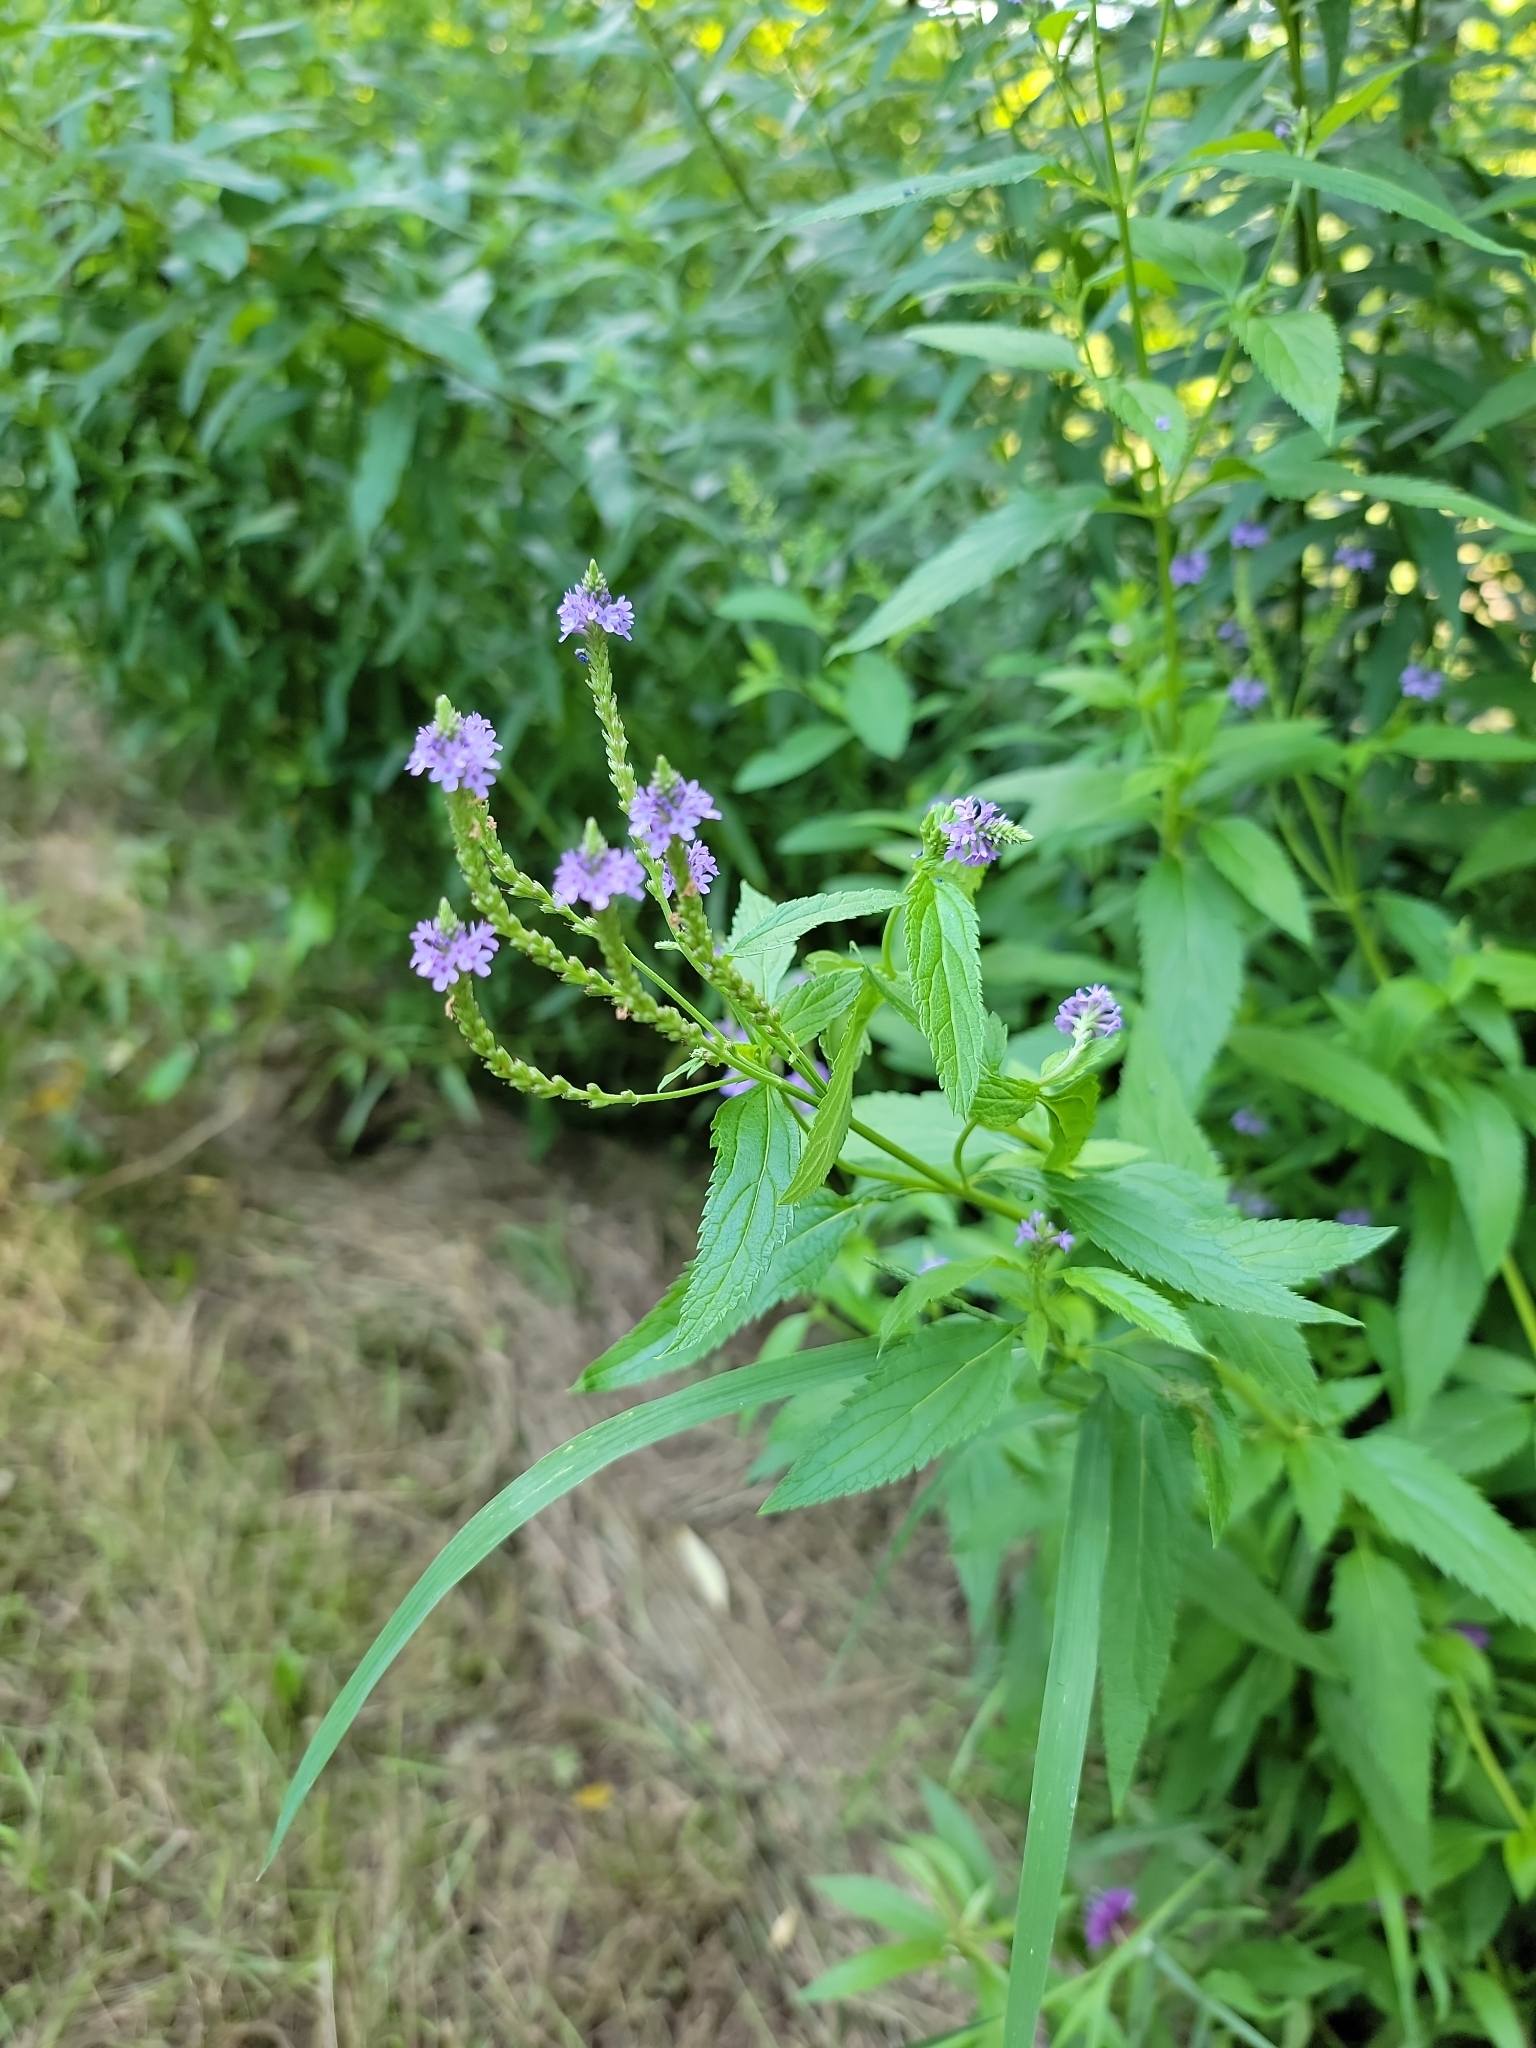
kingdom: Plantae
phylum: Tracheophyta
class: Magnoliopsida
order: Lamiales
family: Verbenaceae
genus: Verbena
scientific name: Verbena hastata
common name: American blue vervain
